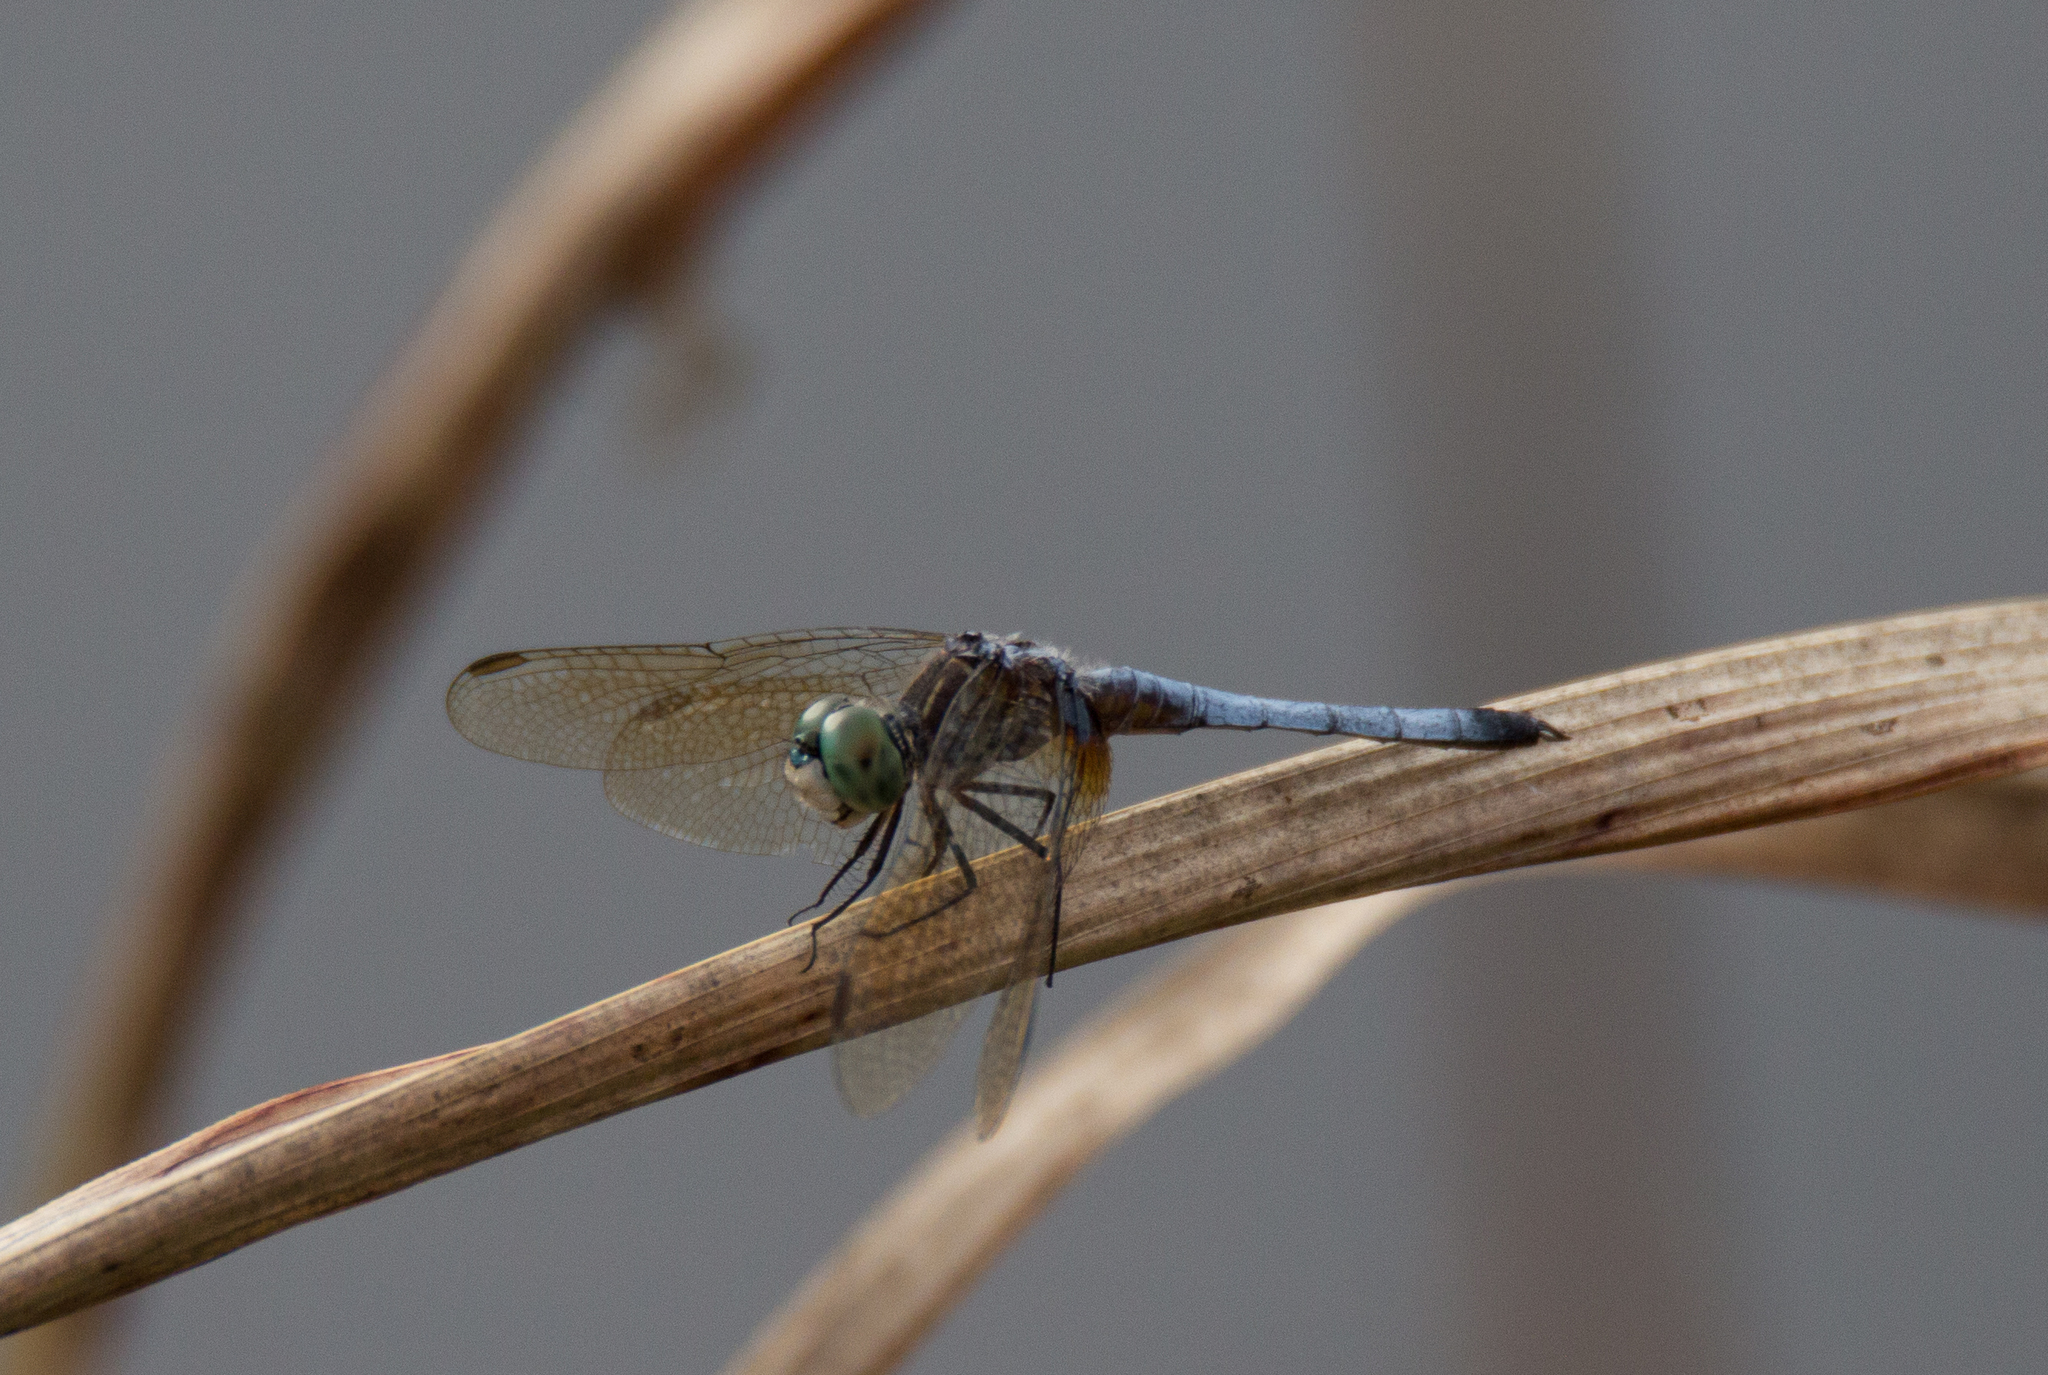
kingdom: Animalia
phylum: Arthropoda
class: Insecta
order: Odonata
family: Libellulidae
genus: Pachydiplax
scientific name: Pachydiplax longipennis
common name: Blue dasher
